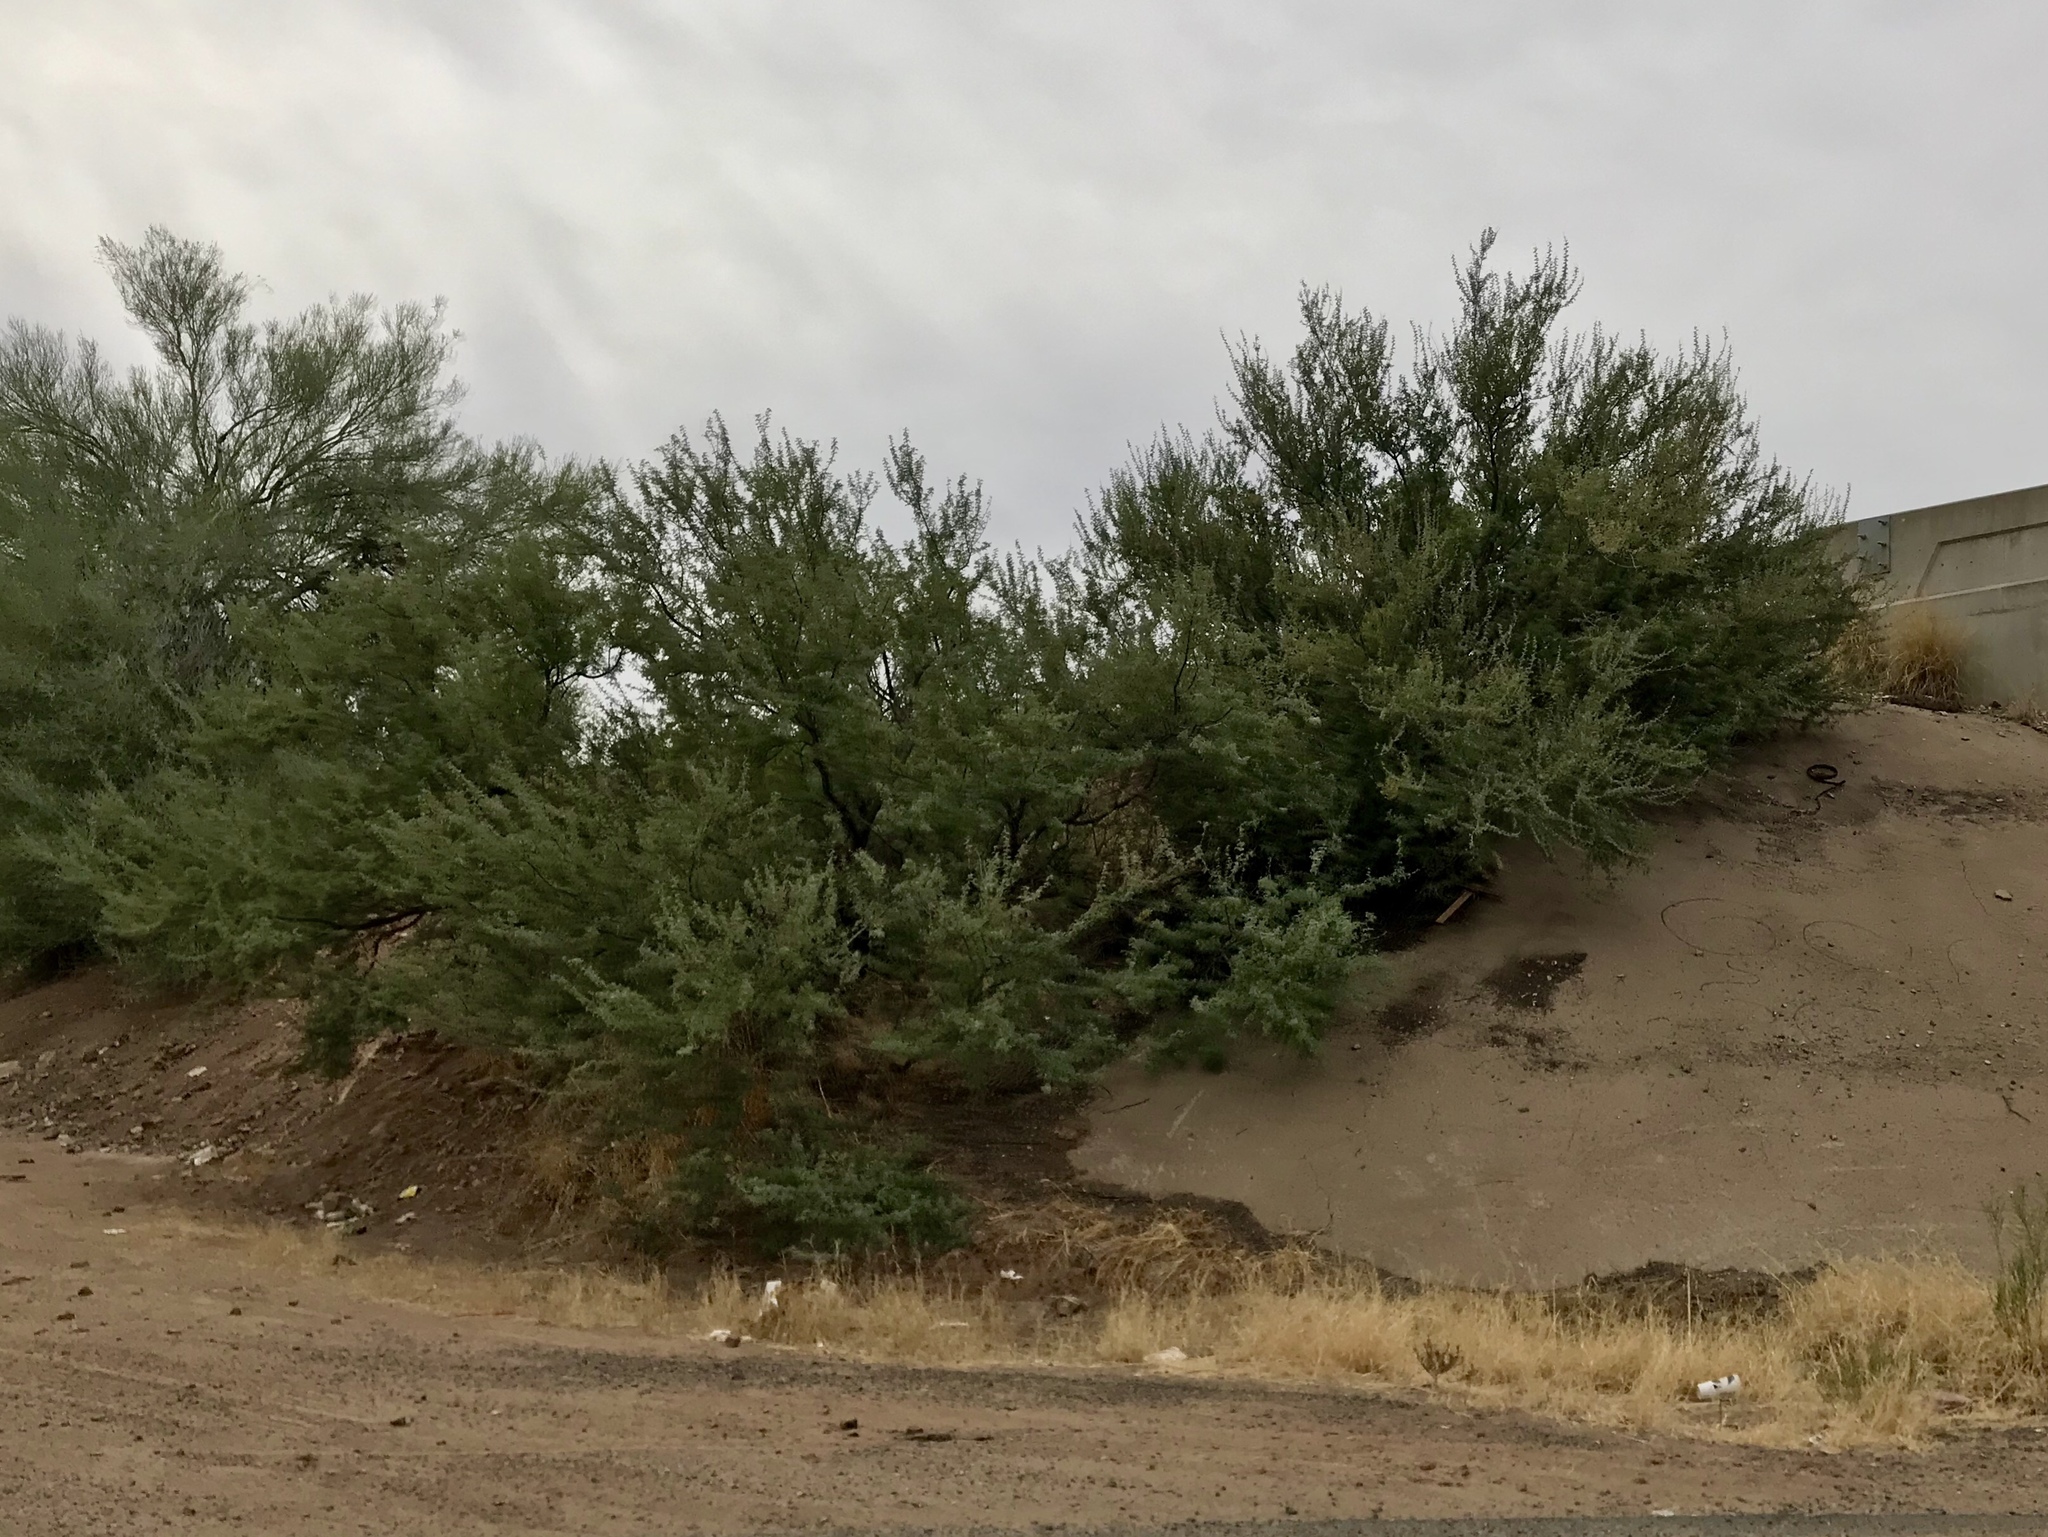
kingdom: Plantae
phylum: Tracheophyta
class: Magnoliopsida
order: Fabales
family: Fabaceae
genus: Olneya
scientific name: Olneya tesota
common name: Desert ironwood
